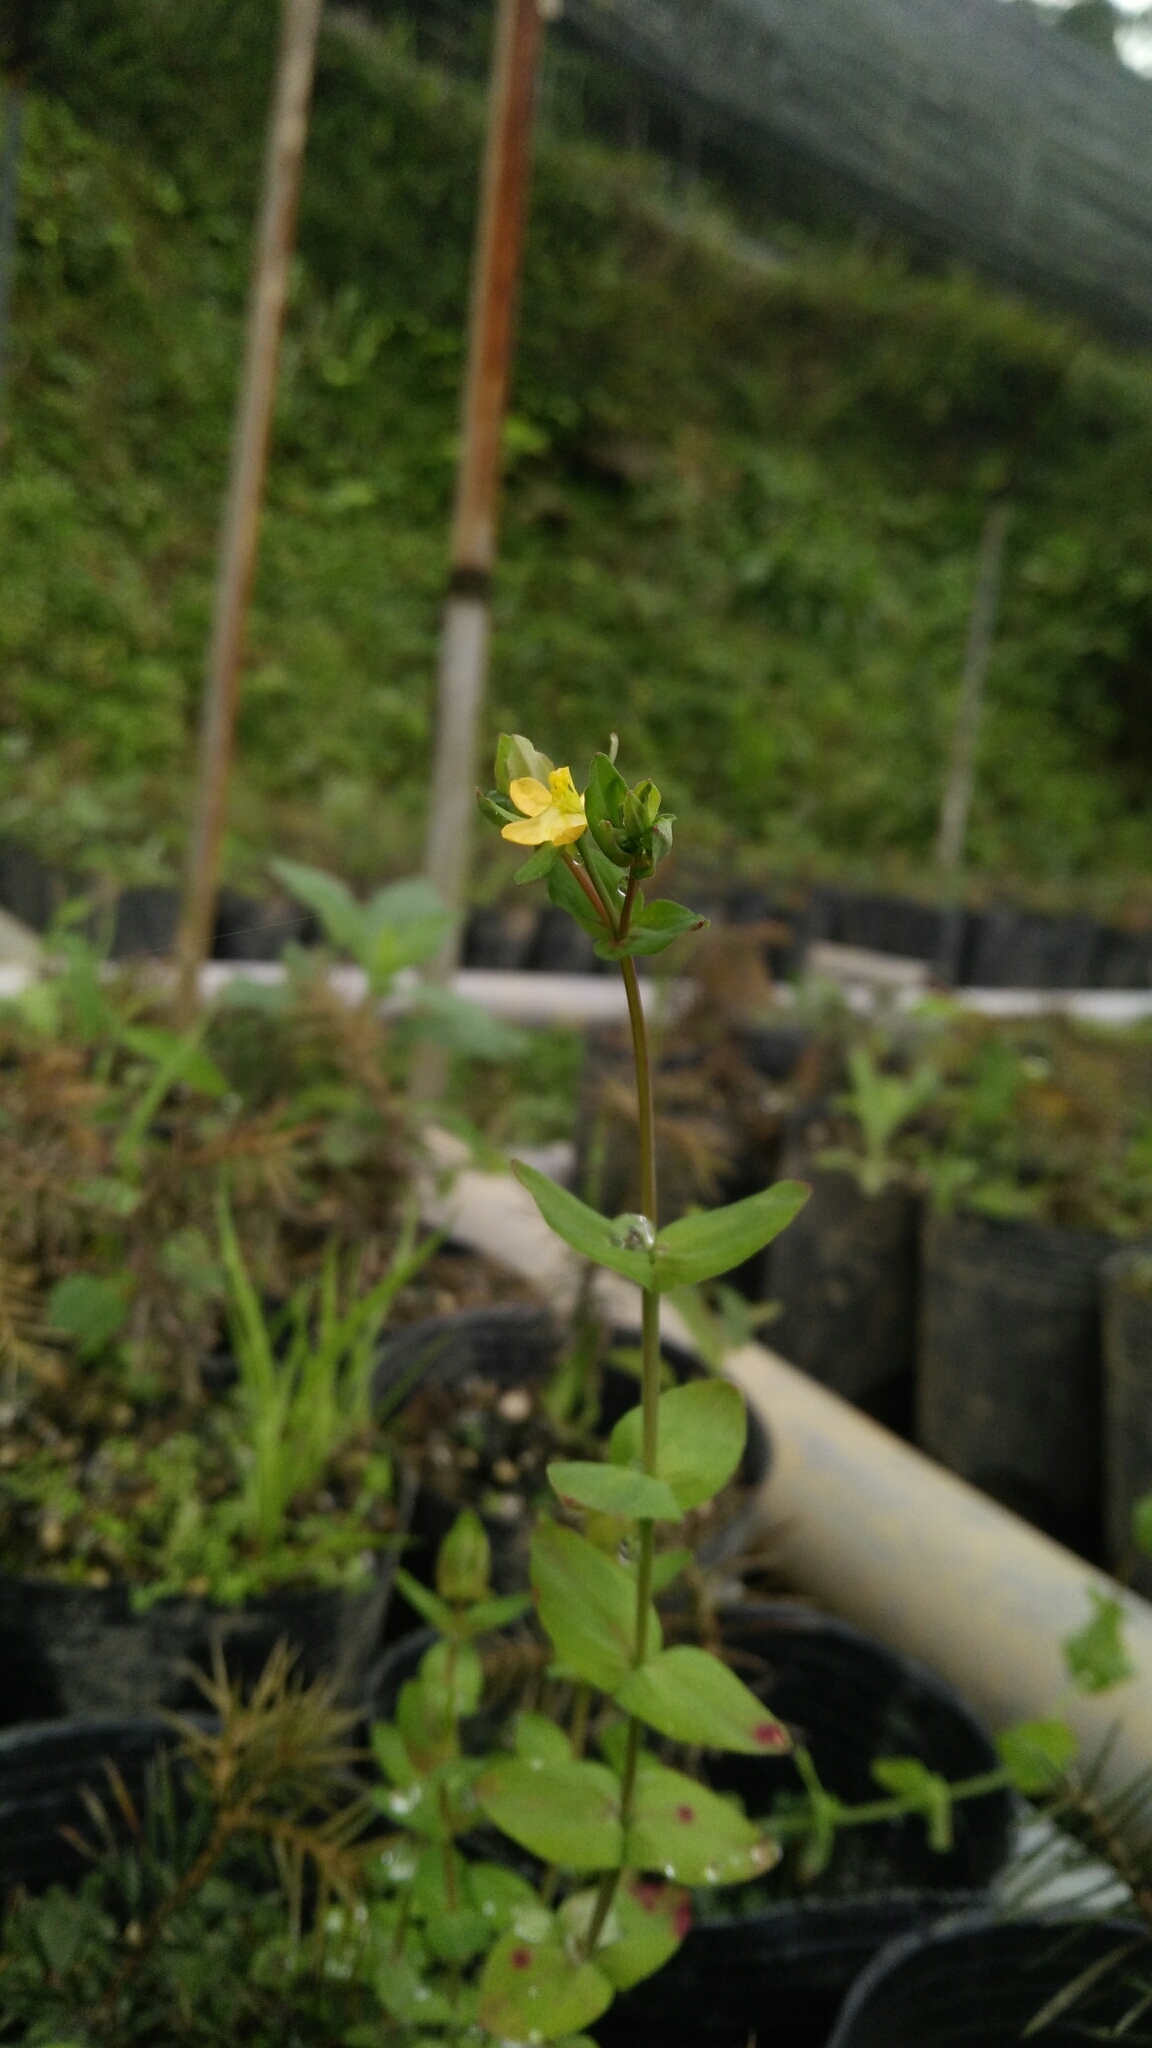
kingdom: Plantae
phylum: Tracheophyta
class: Magnoliopsida
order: Malpighiales
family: Hypericaceae
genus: Hypericum
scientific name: Hypericum japonicum
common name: Matted st. john's-wort
